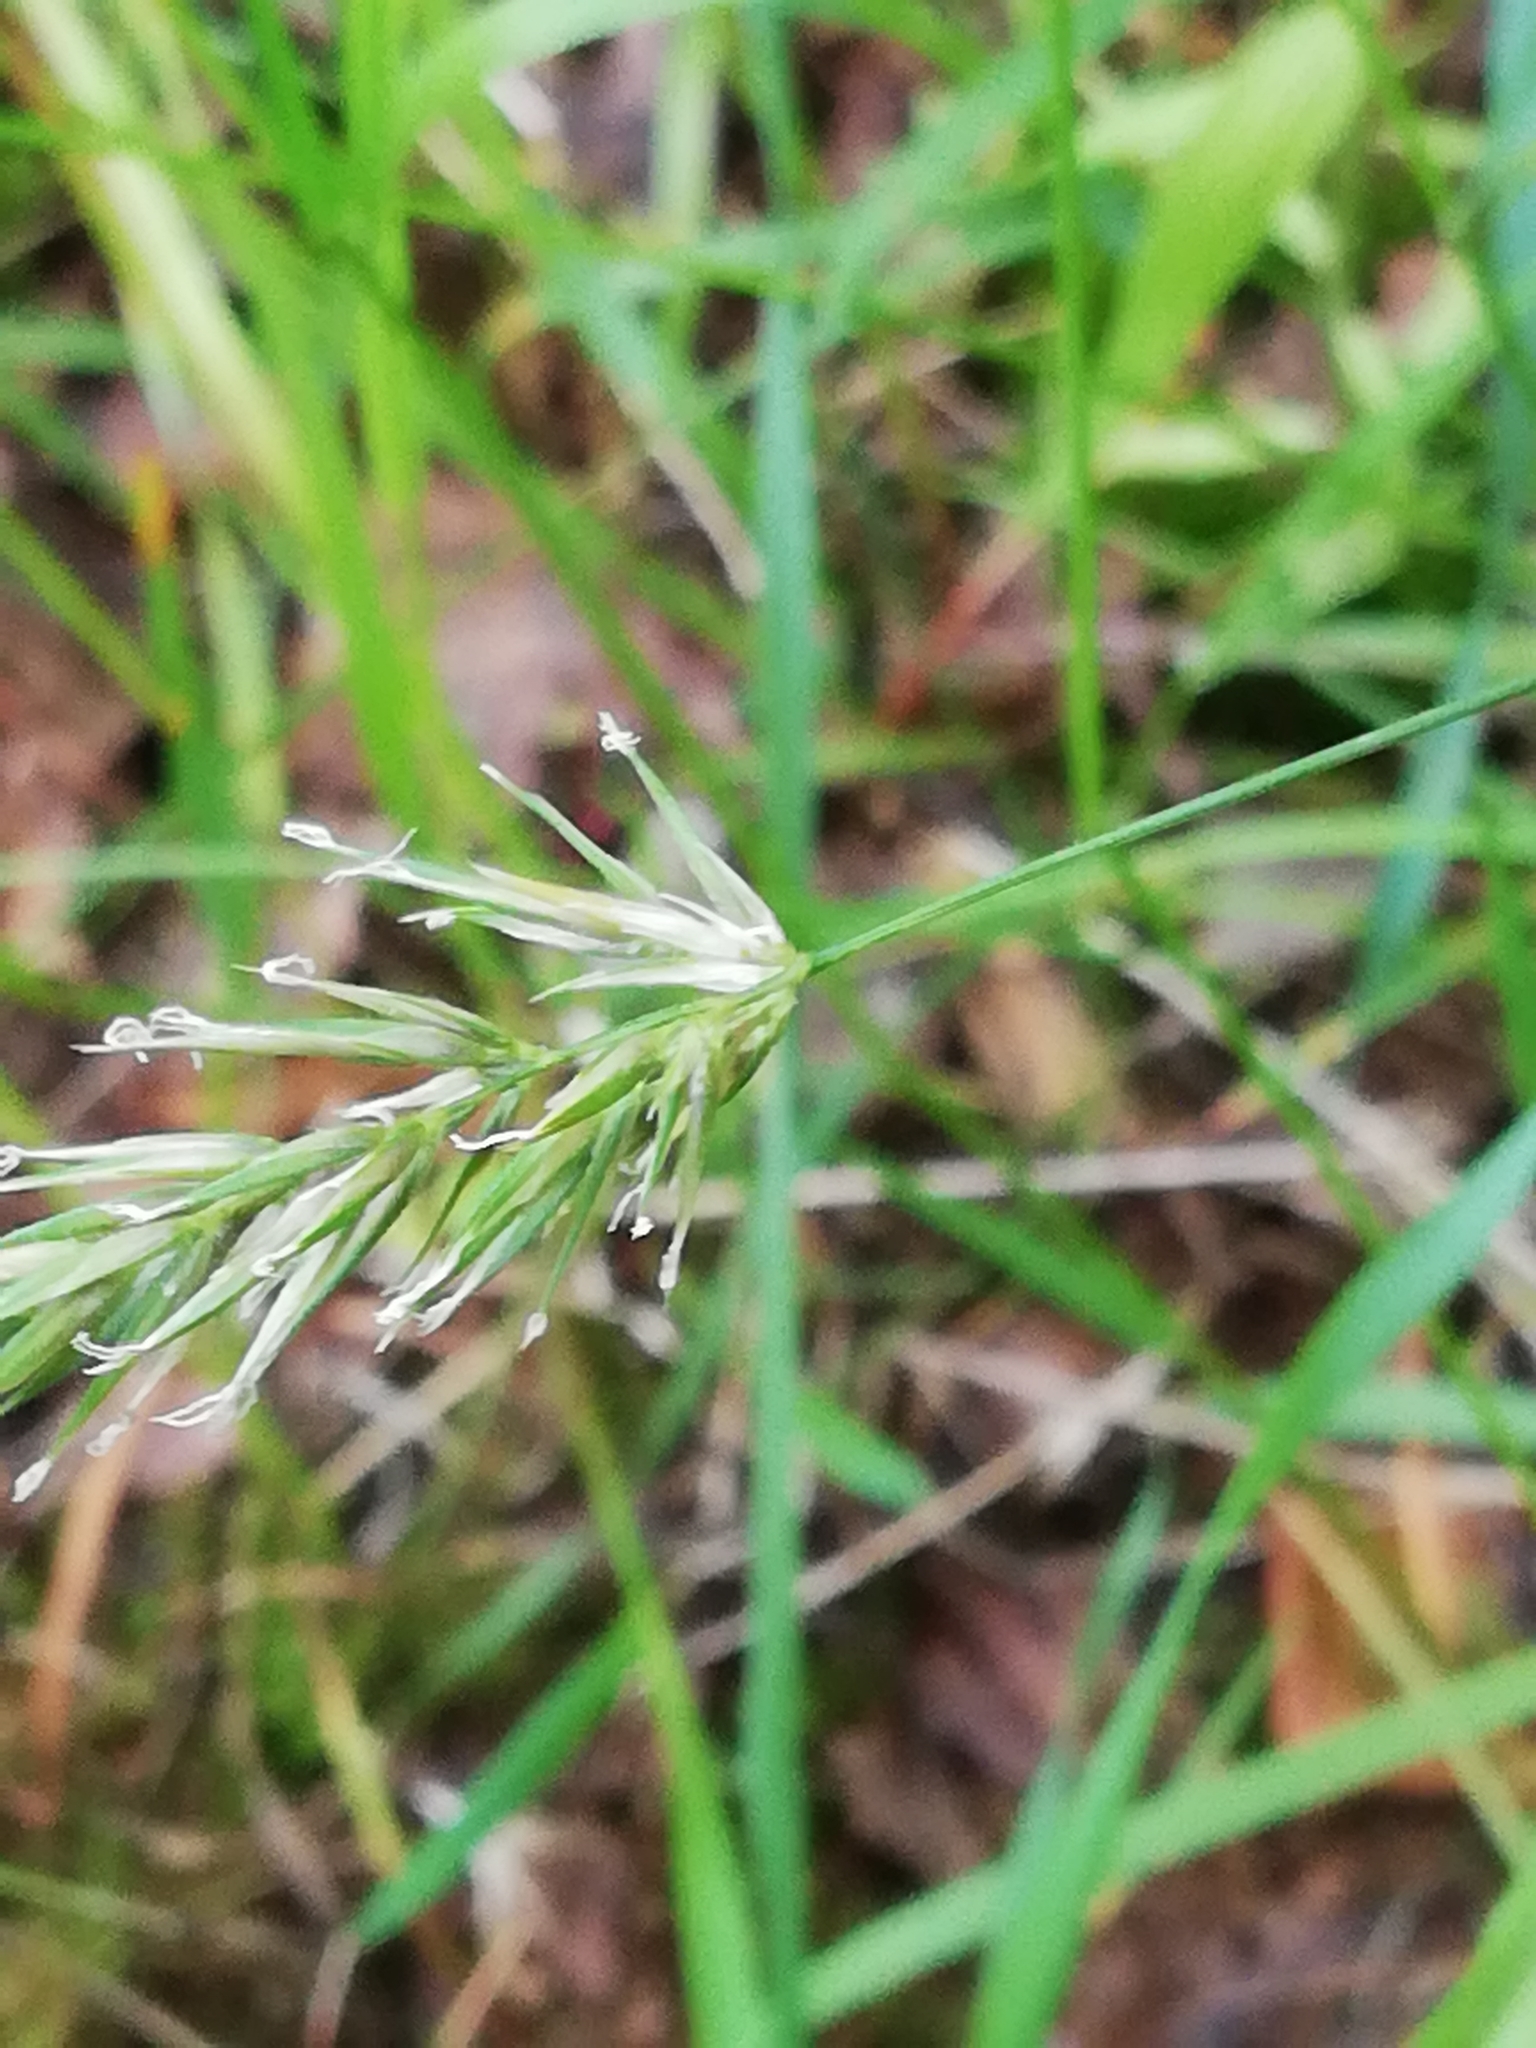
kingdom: Plantae
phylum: Tracheophyta
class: Liliopsida
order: Poales
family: Poaceae
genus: Anthoxanthum
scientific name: Anthoxanthum odoratum
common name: Sweet vernalgrass
